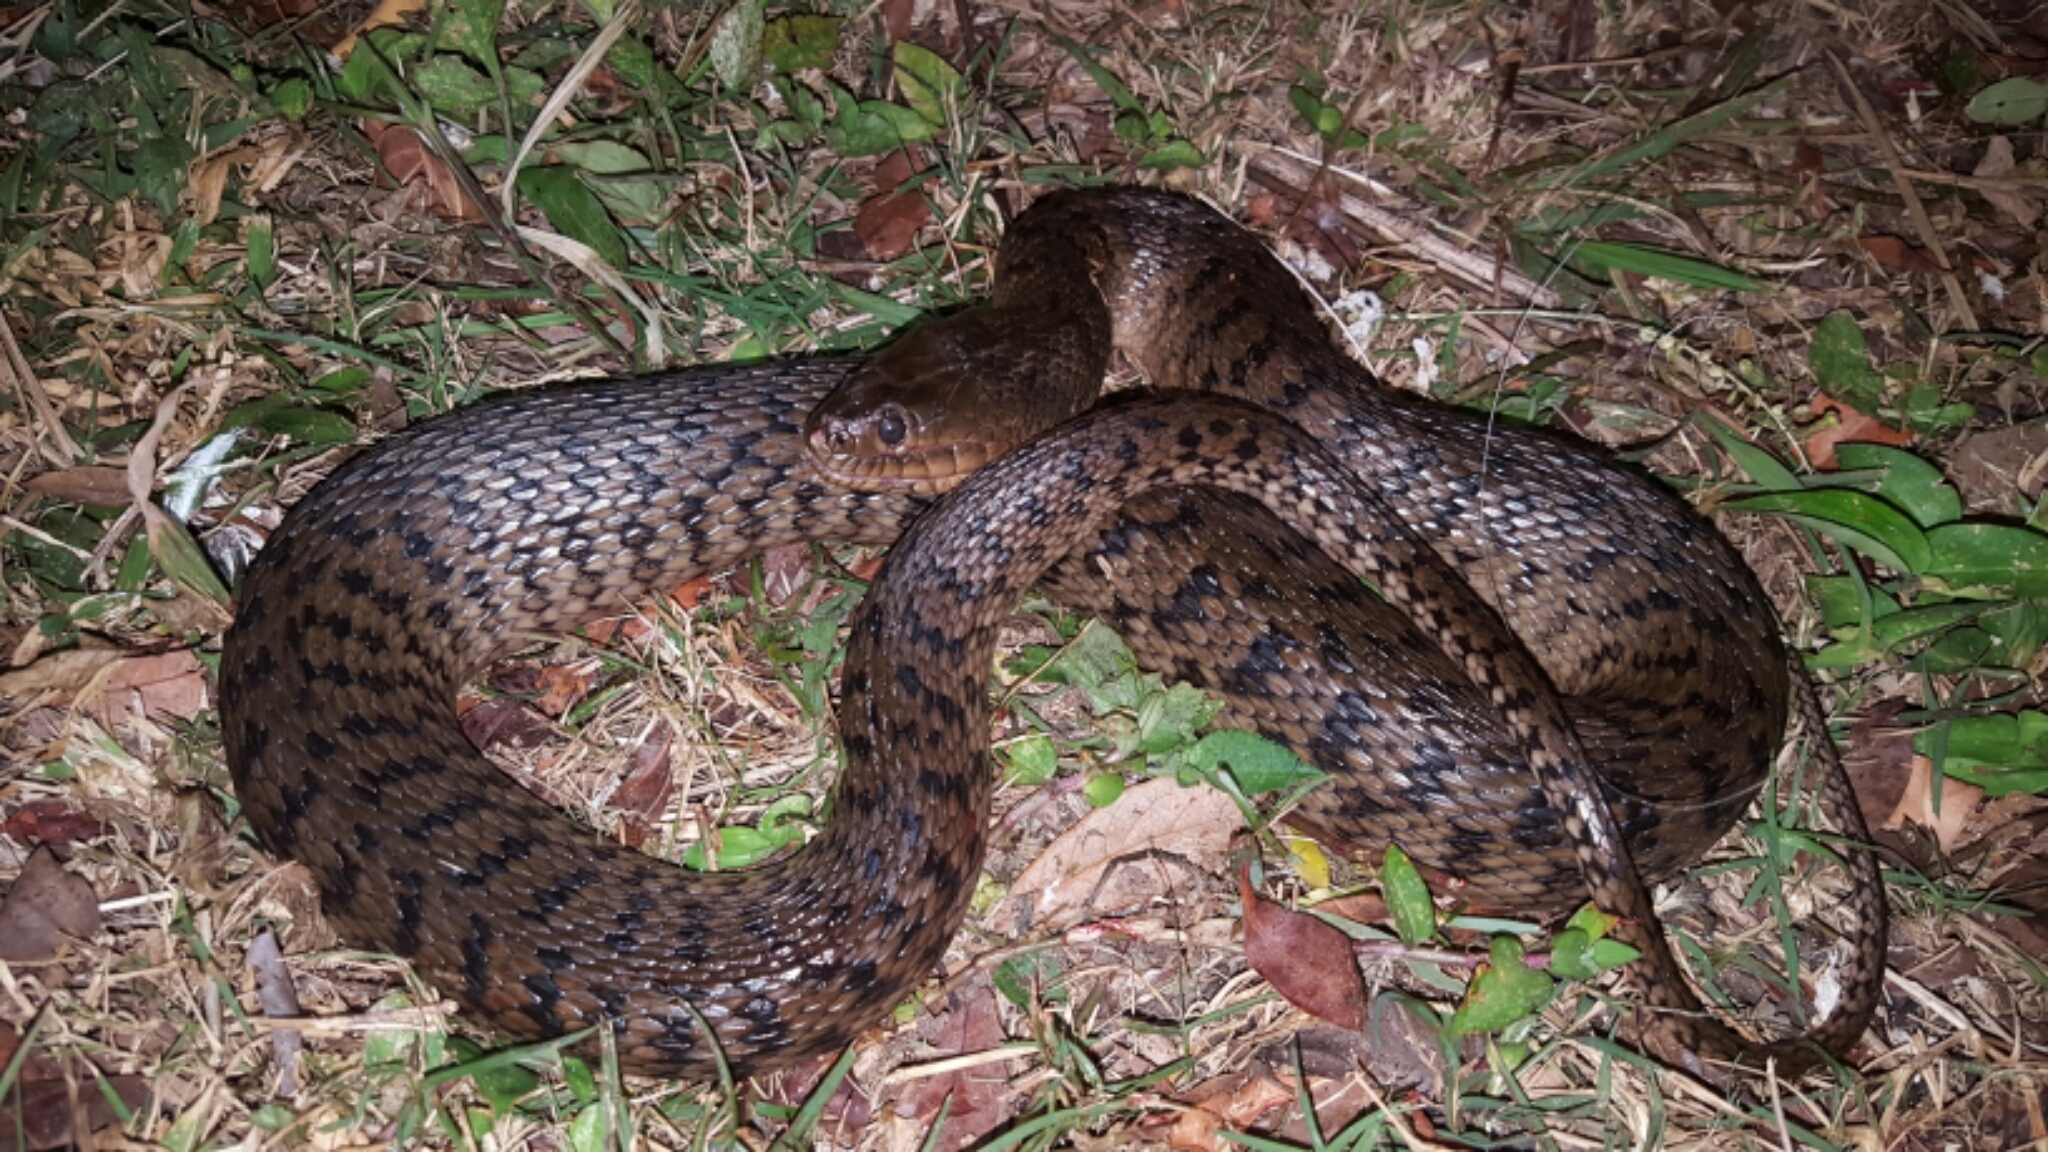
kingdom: Animalia
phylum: Chordata
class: Squamata
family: Colubridae
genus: Nerodia
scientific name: Nerodia floridana
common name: Florida green watersnake
